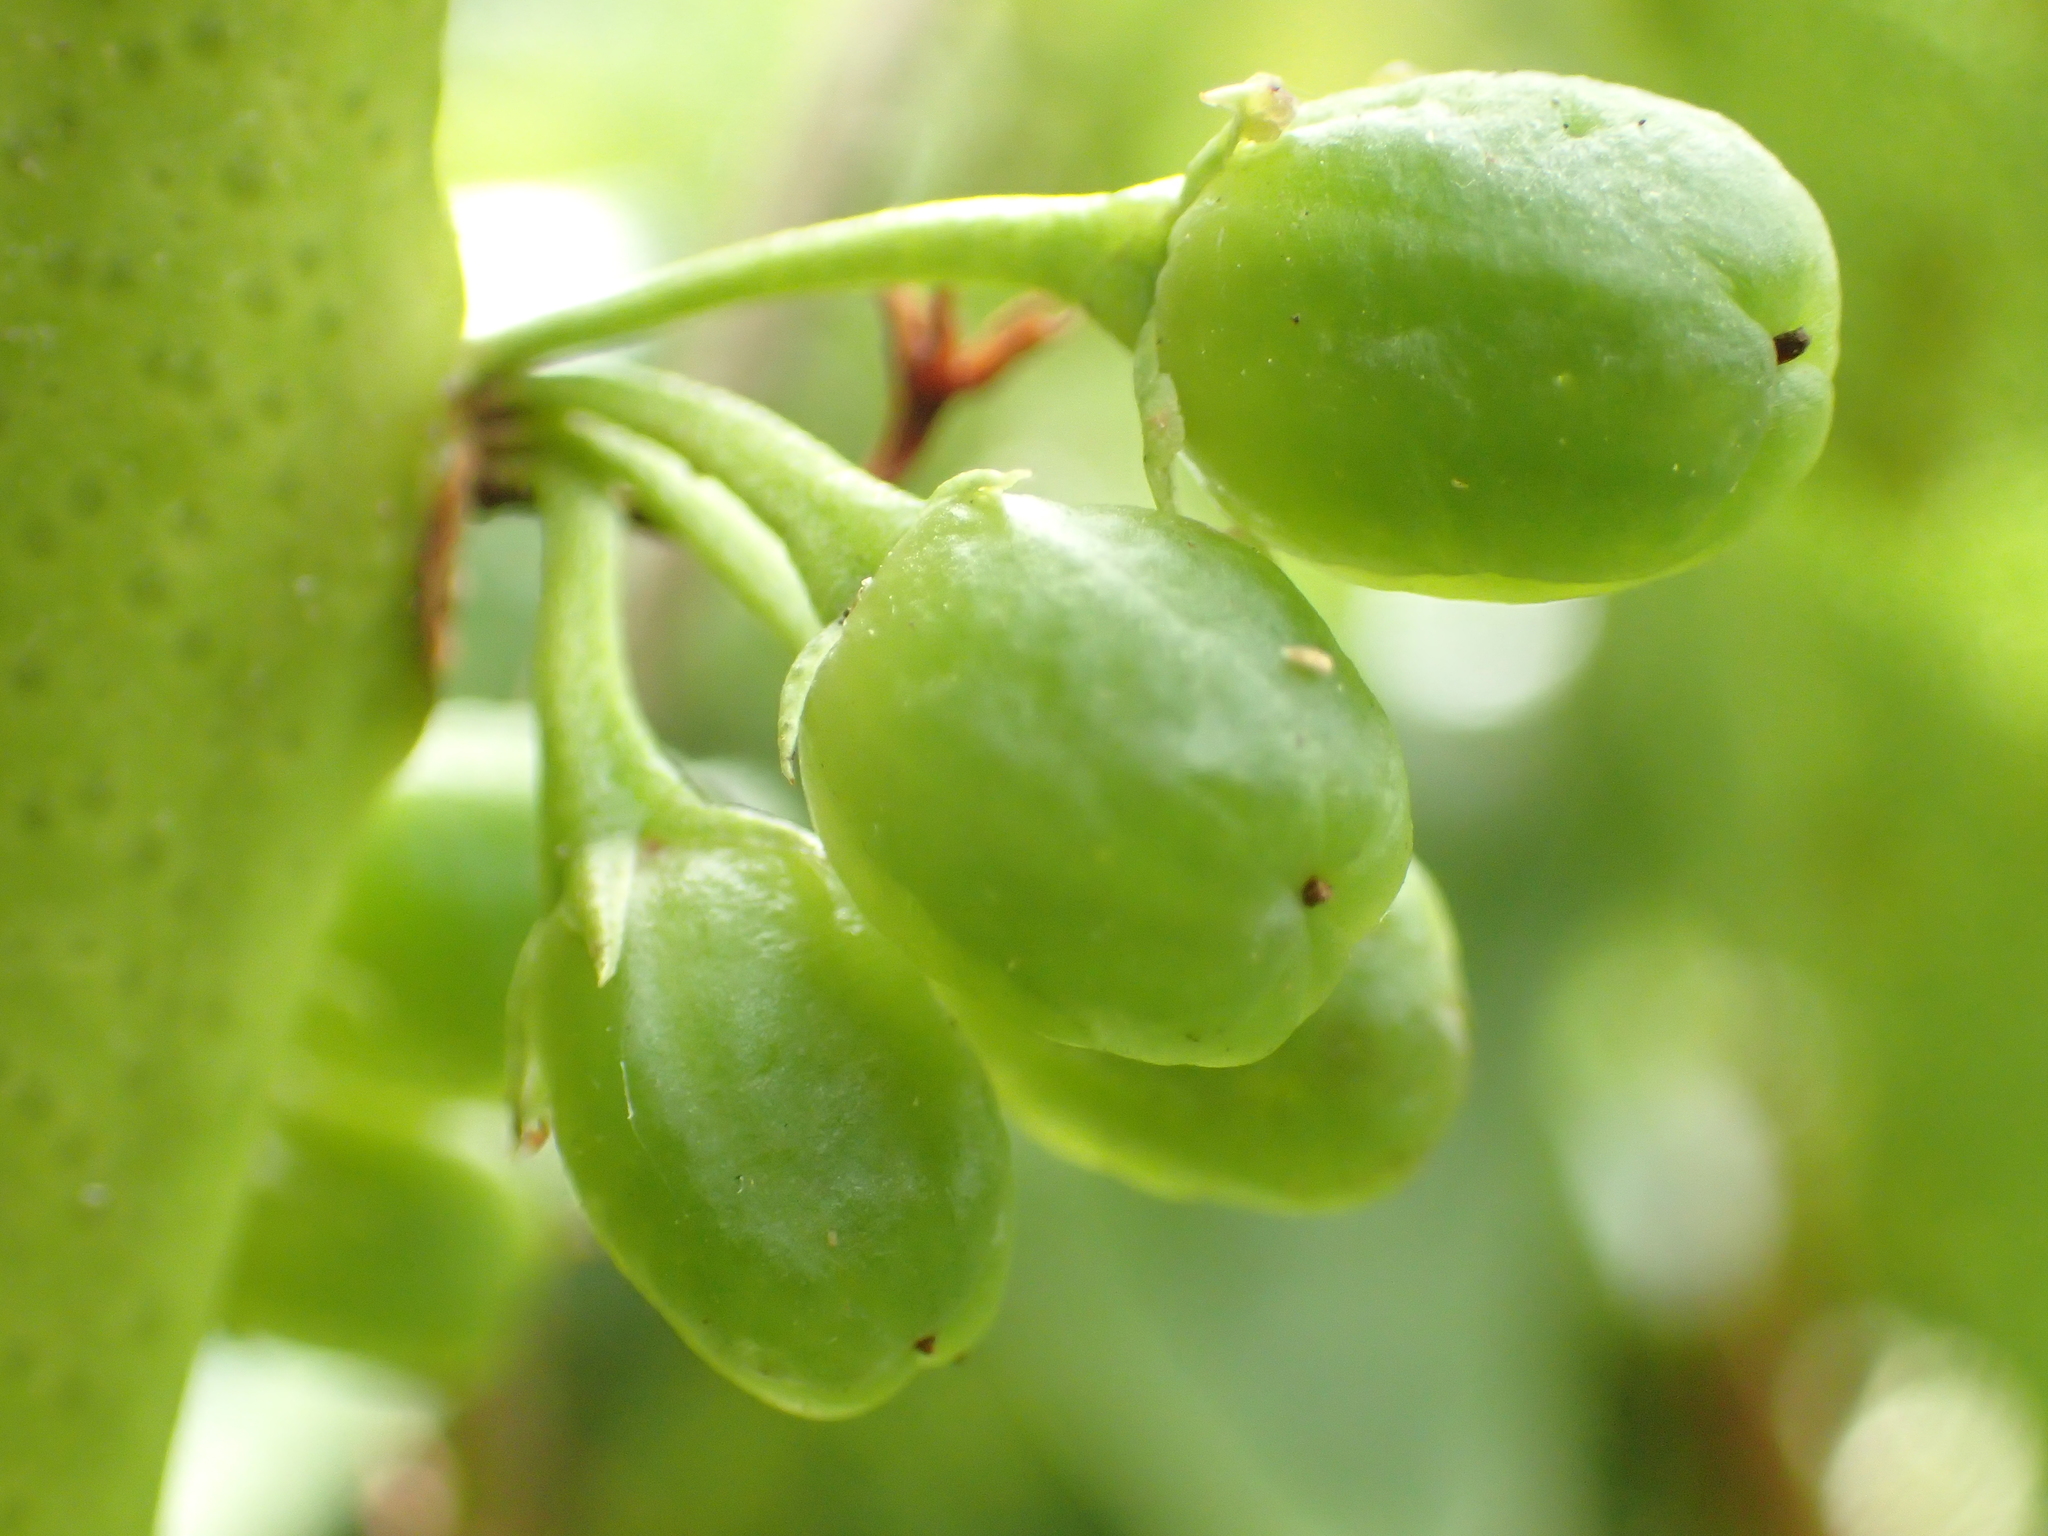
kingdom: Plantae
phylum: Tracheophyta
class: Magnoliopsida
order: Lamiales
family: Scrophulariaceae
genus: Myoporum
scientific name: Myoporum laetum
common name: Ngaio tree
